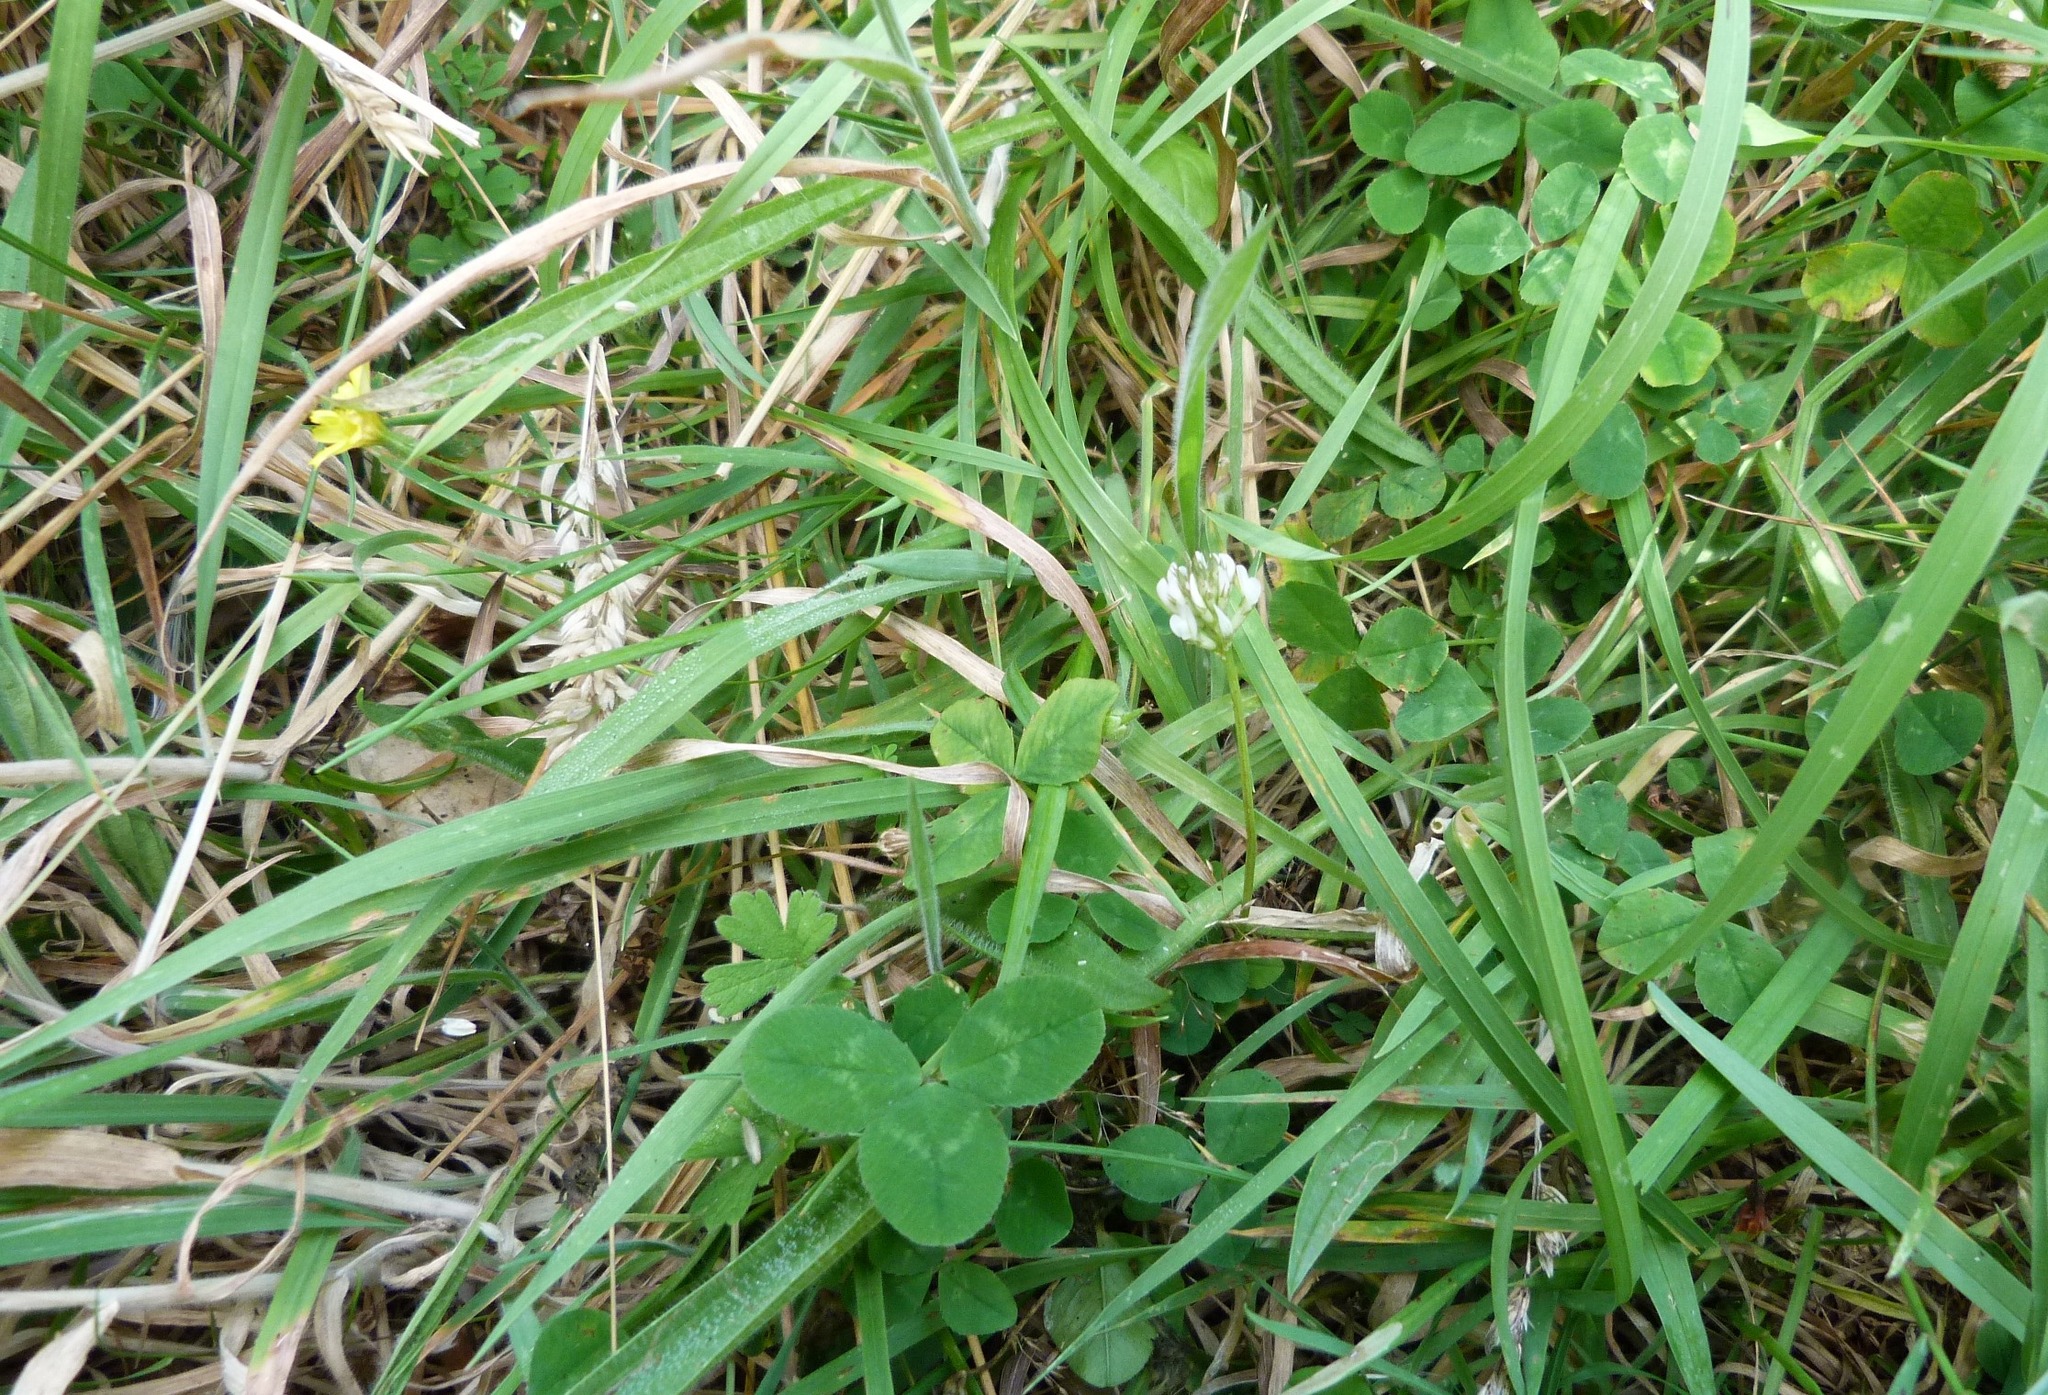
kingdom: Plantae
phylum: Tracheophyta
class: Magnoliopsida
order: Fabales
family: Fabaceae
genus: Trifolium
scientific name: Trifolium repens
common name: White clover
